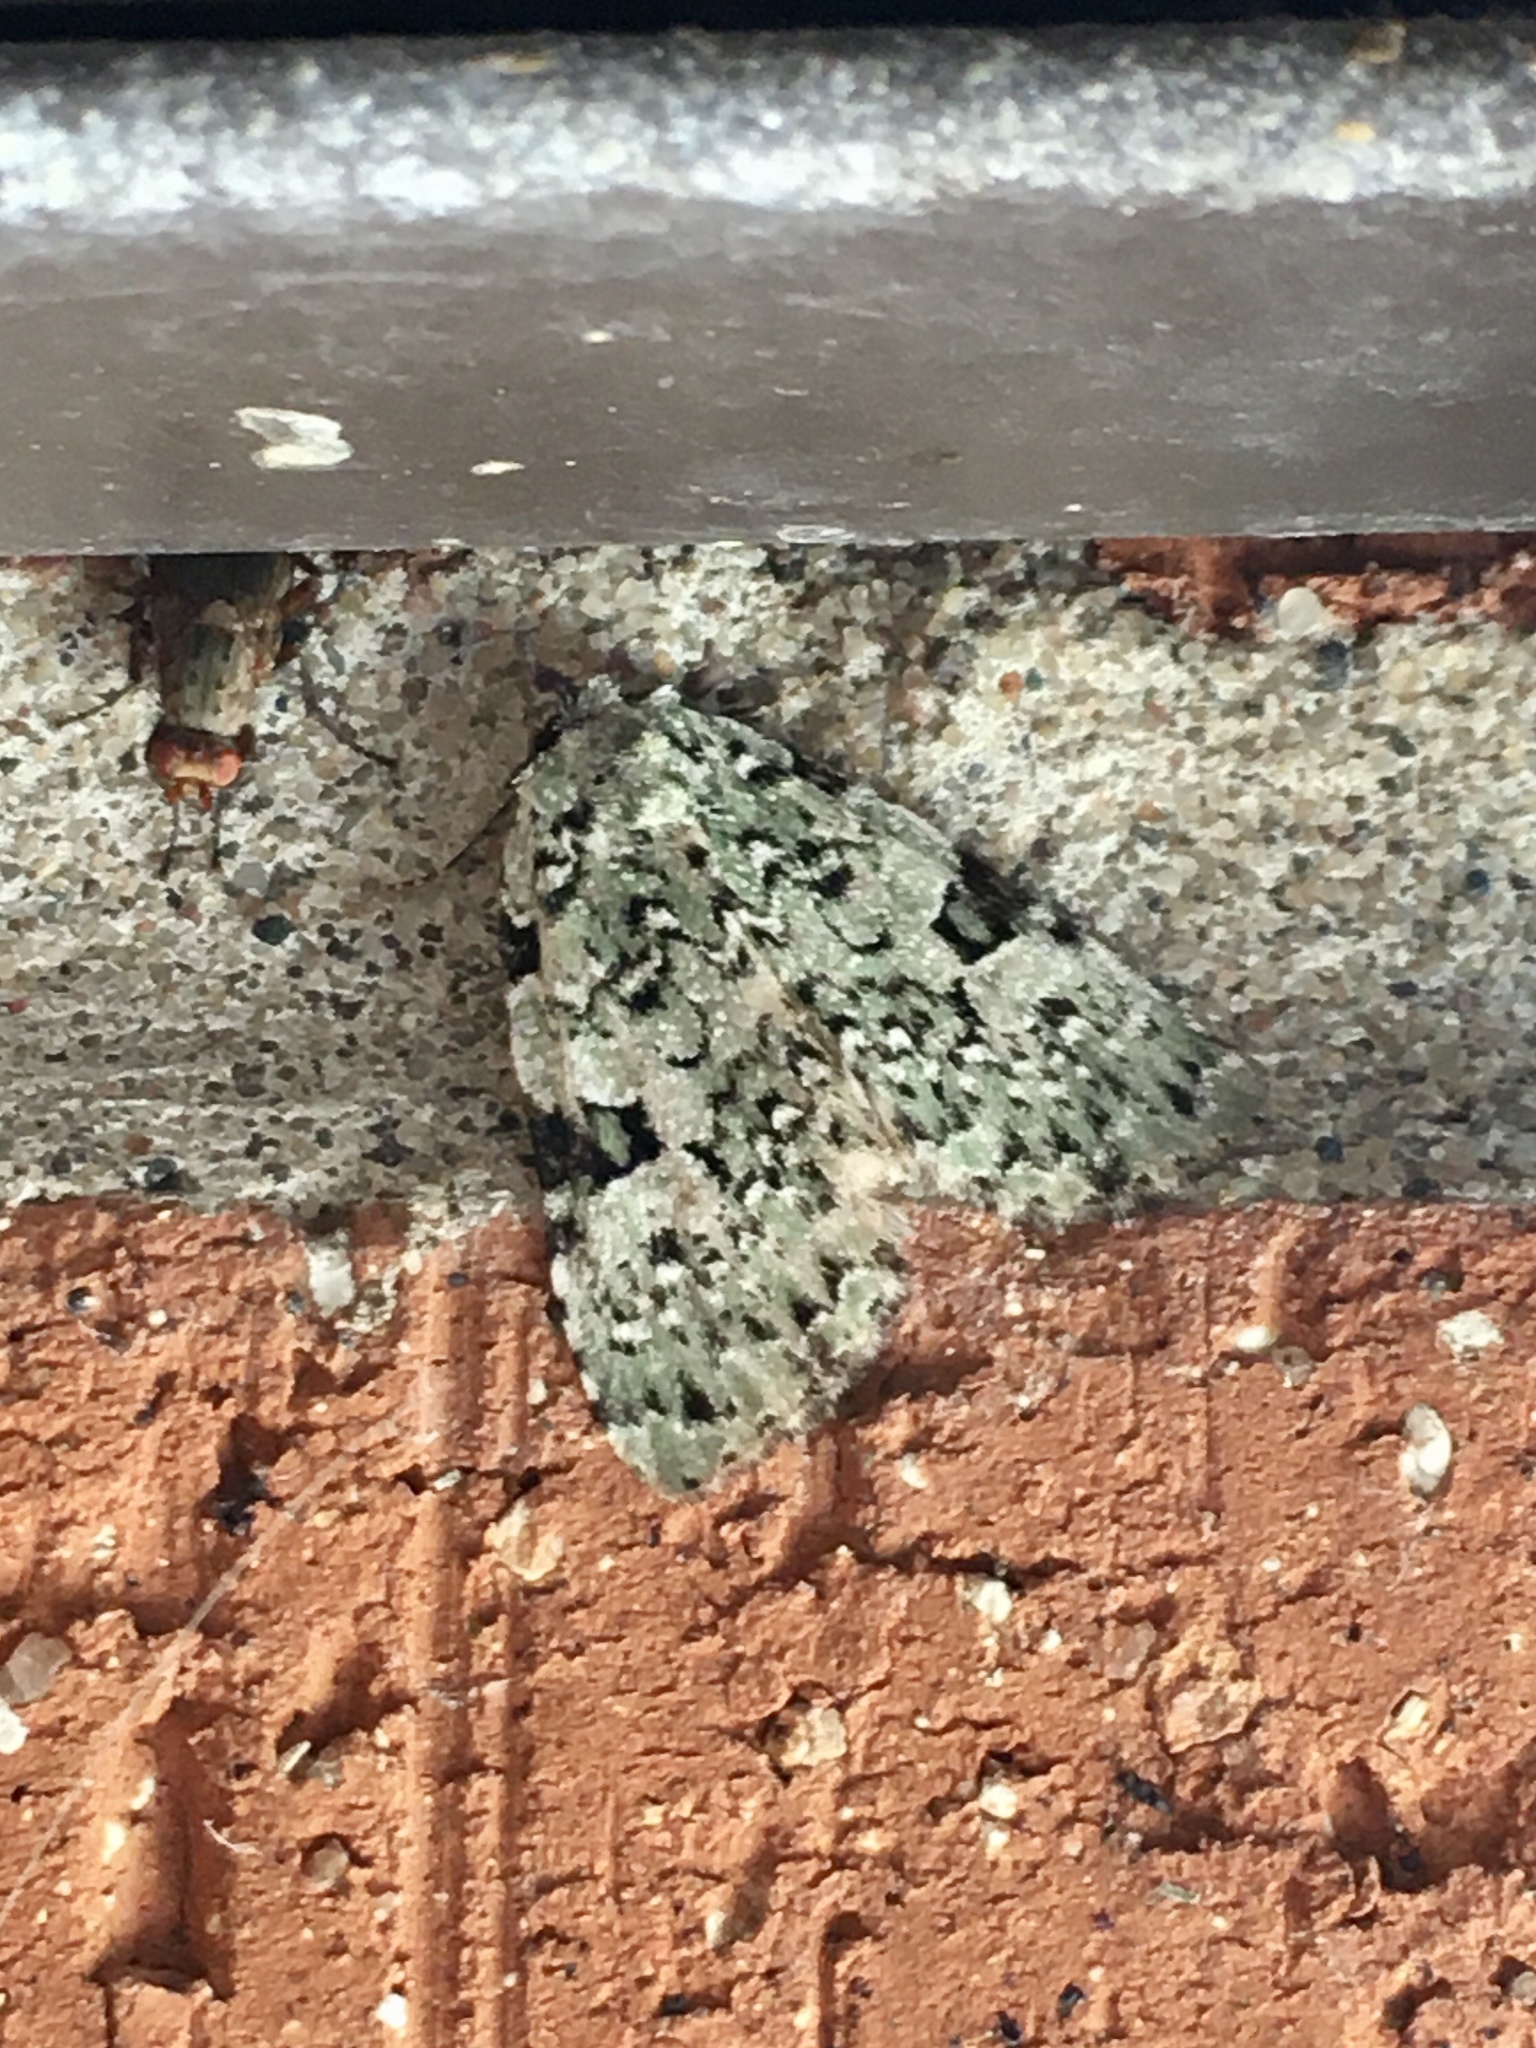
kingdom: Animalia
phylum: Arthropoda
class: Insecta
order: Lepidoptera
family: Noctuidae
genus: Leuconycta
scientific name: Leuconycta diphteroides
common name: Green leuconycta moth
